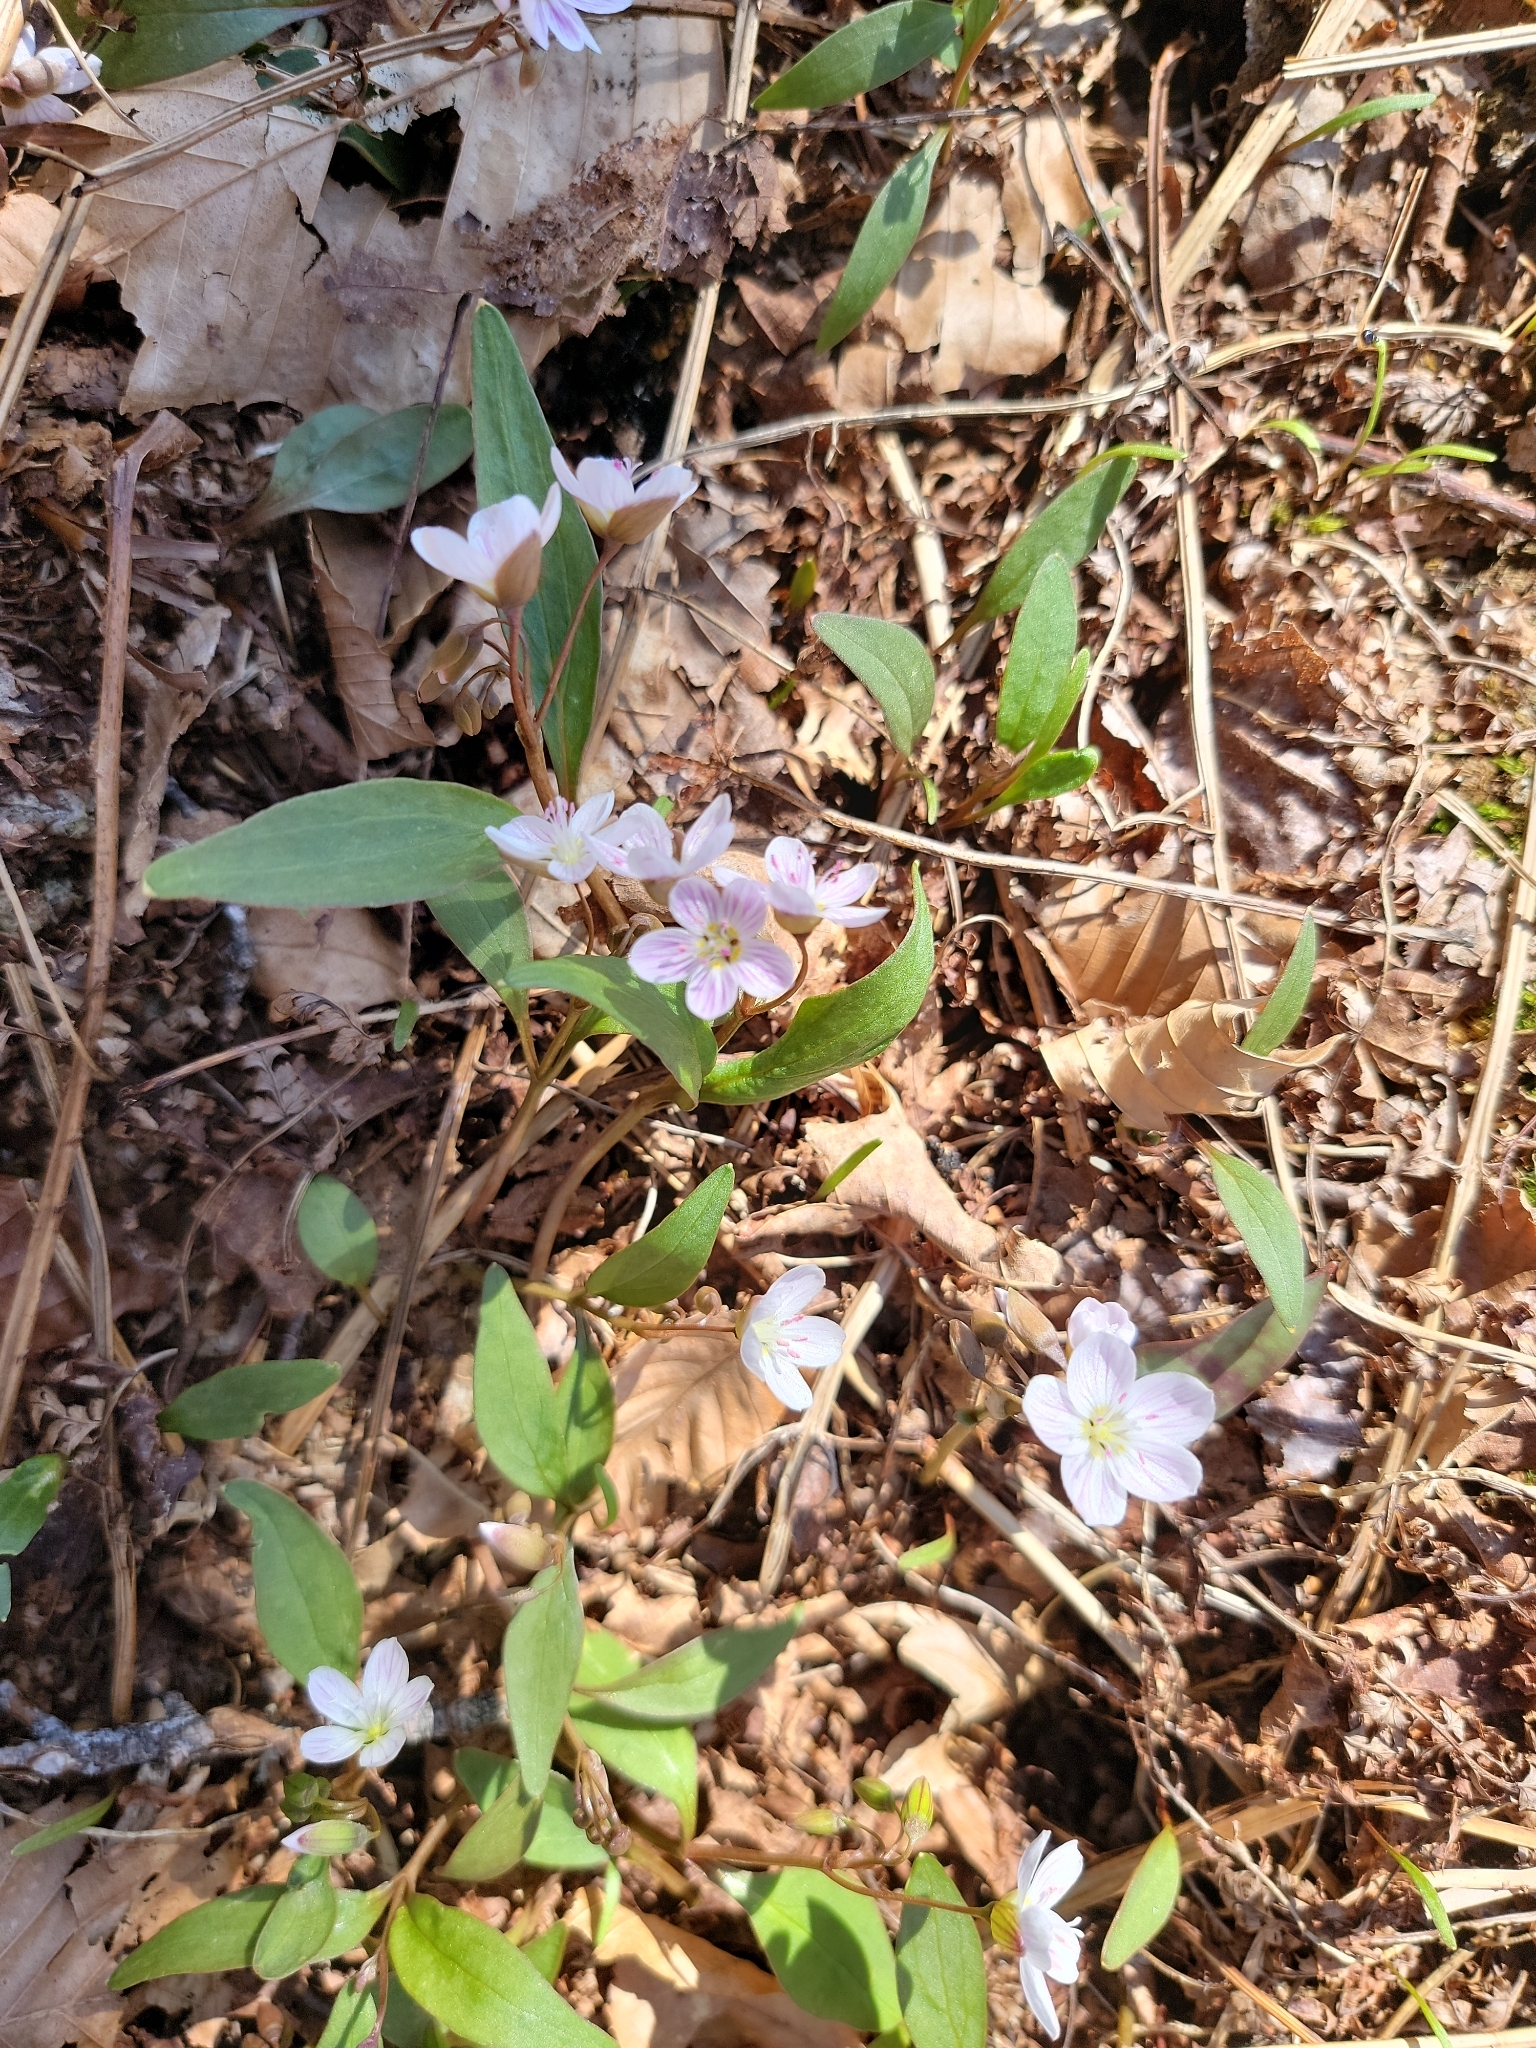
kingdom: Plantae
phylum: Tracheophyta
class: Magnoliopsida
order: Caryophyllales
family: Montiaceae
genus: Claytonia
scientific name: Claytonia caroliniana
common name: Carolina spring beauty
